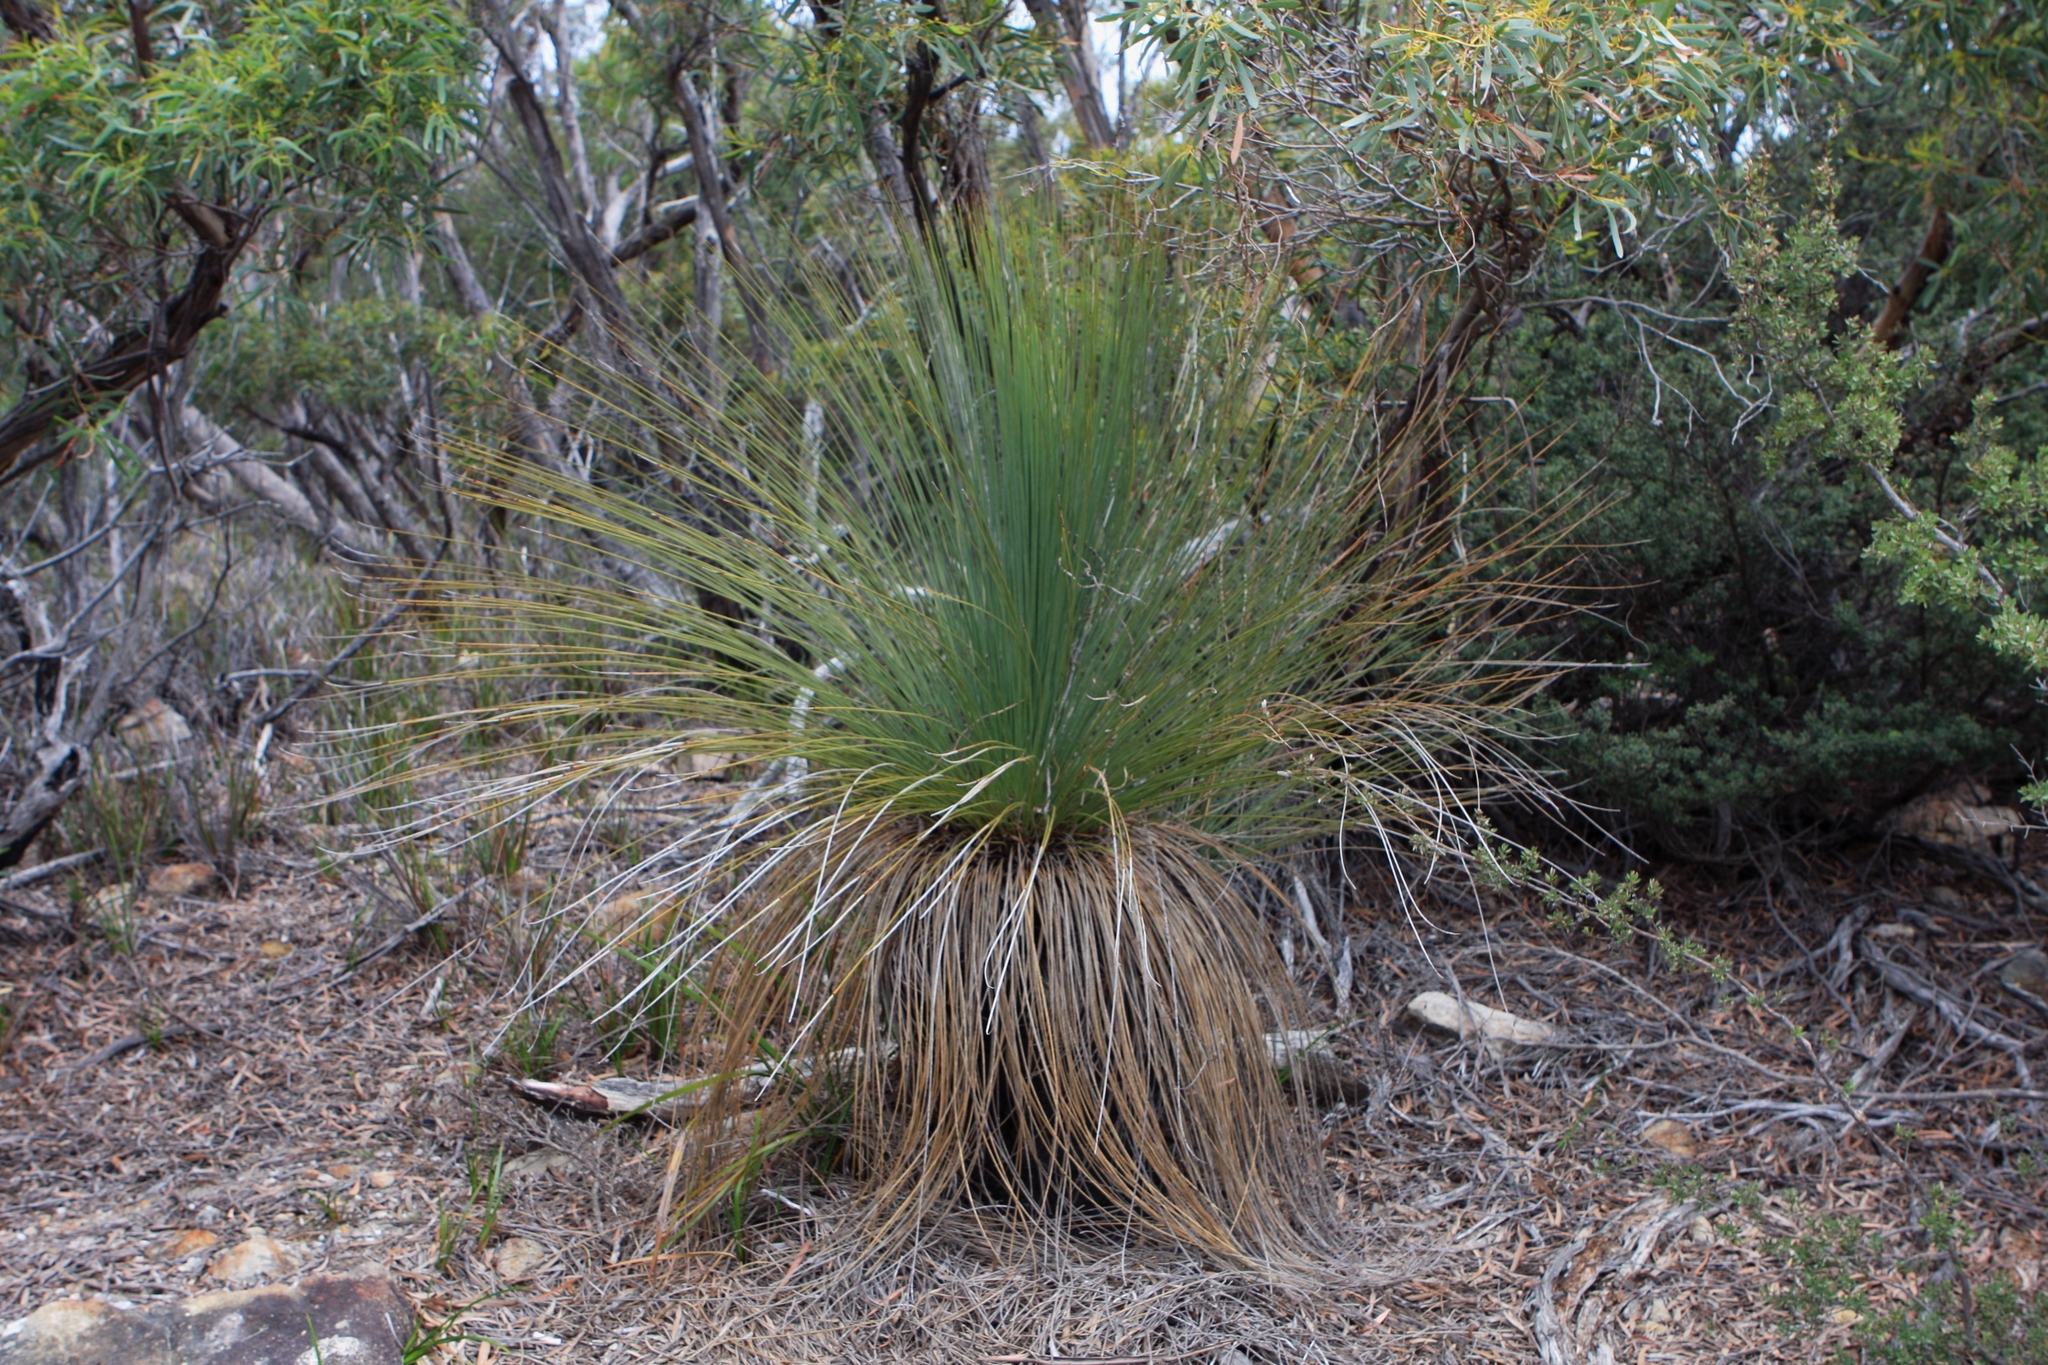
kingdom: Plantae
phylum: Tracheophyta
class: Liliopsida
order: Asparagales
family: Asphodelaceae
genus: Xanthorrhoea
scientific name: Xanthorrhoea australis
